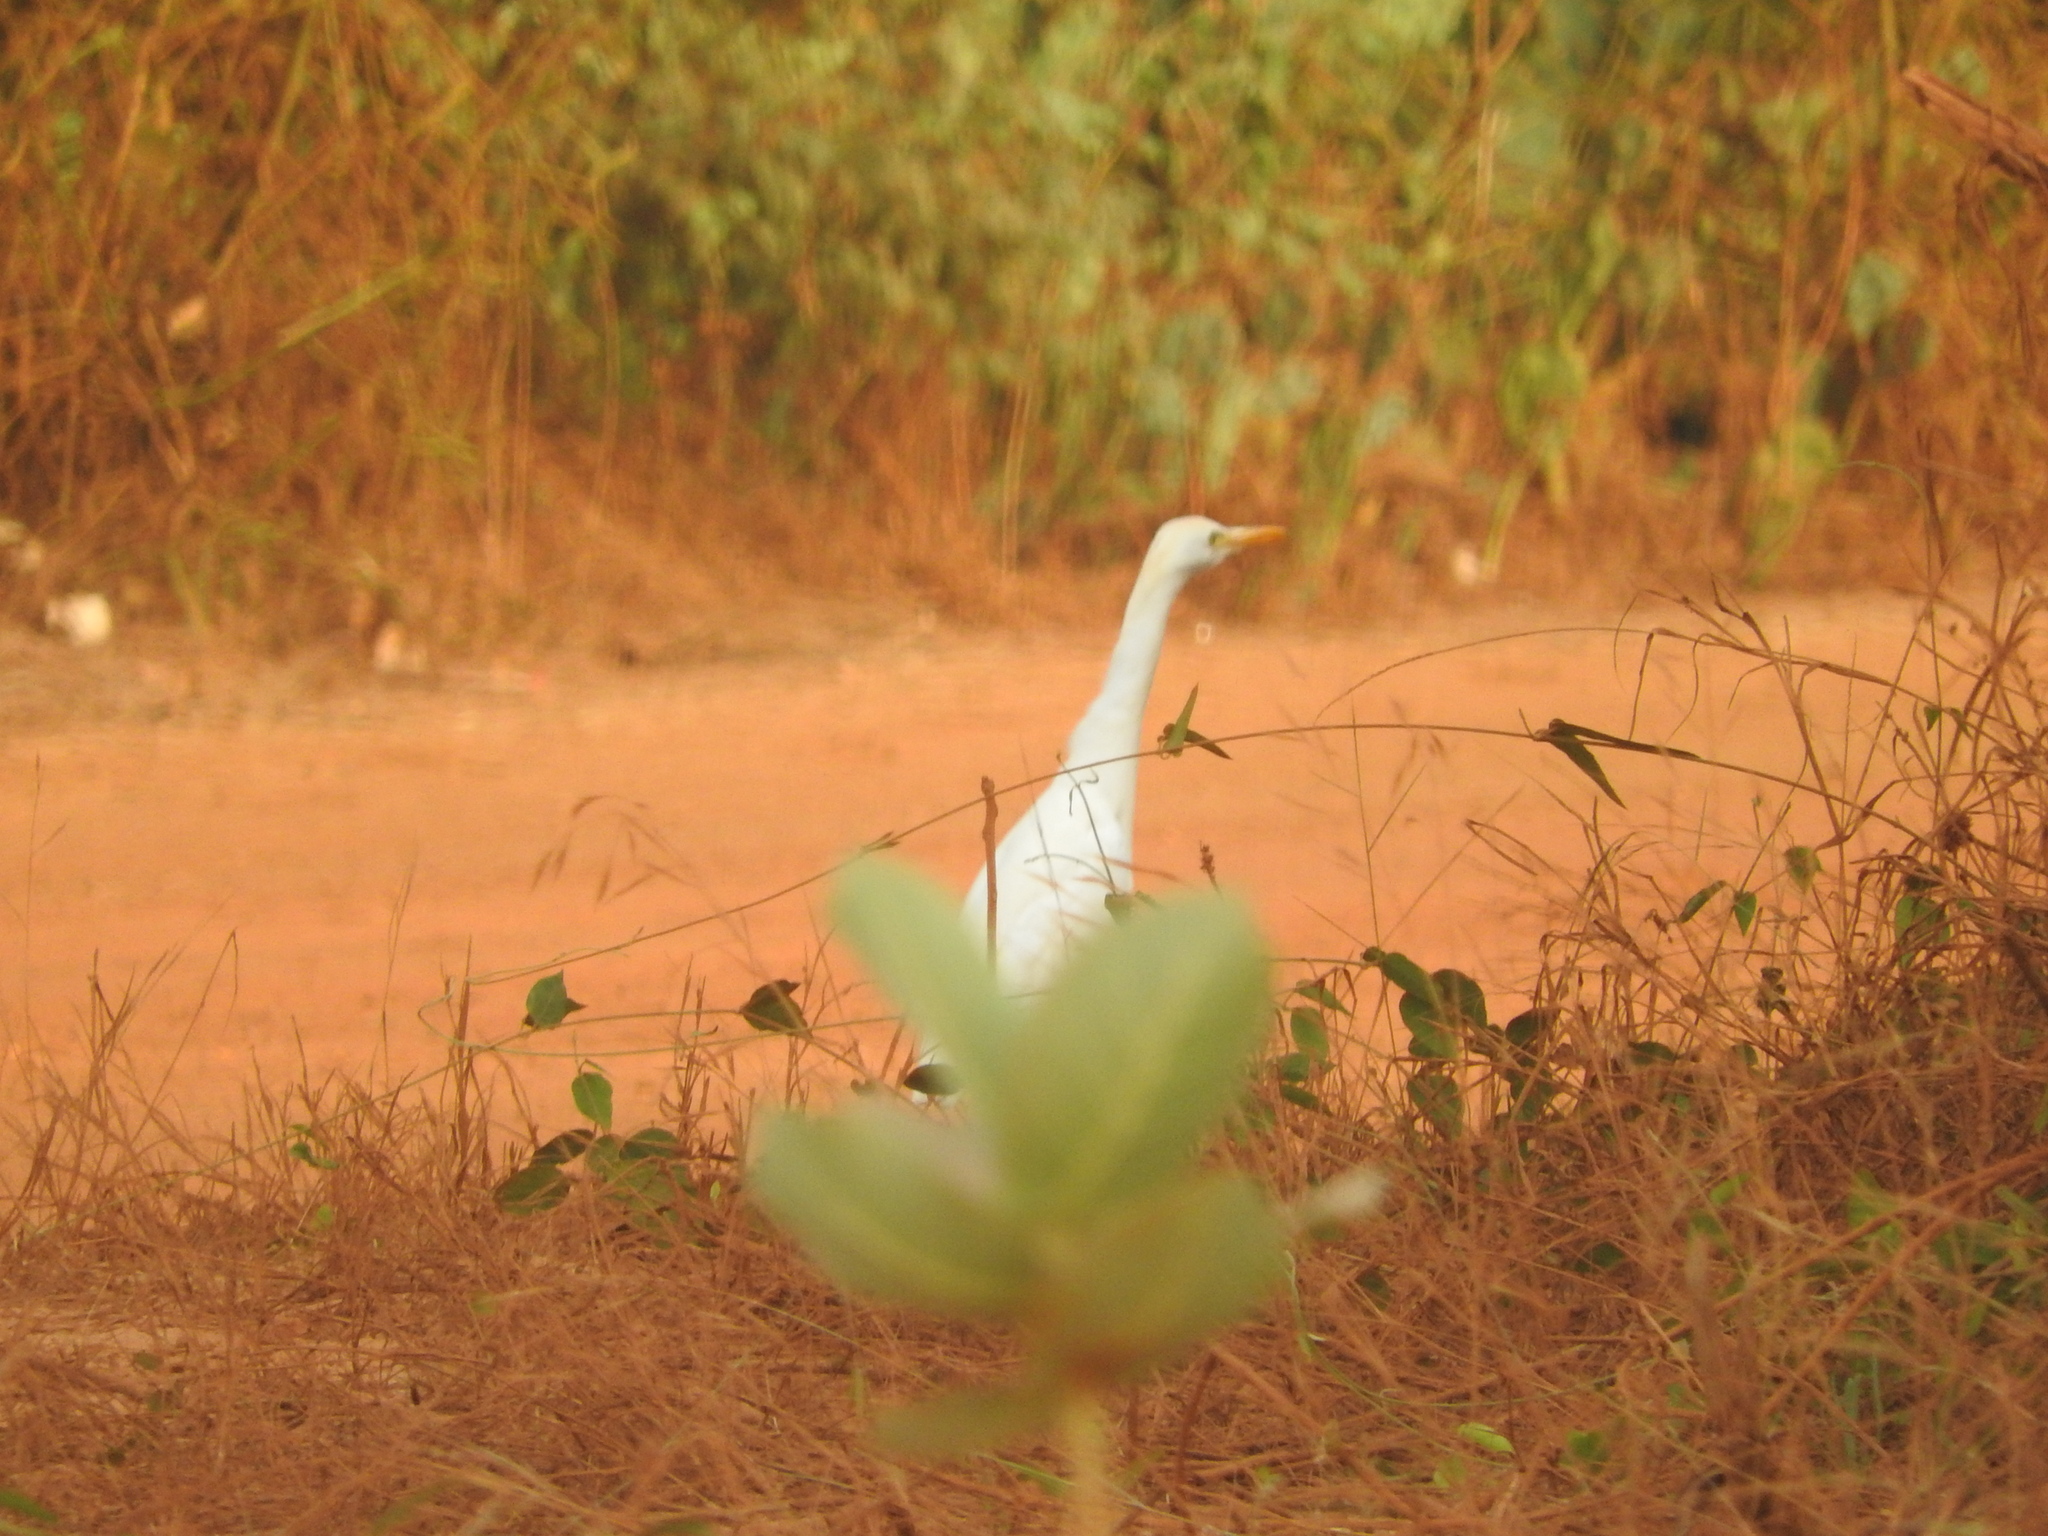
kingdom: Animalia
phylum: Chordata
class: Aves
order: Pelecaniformes
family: Ardeidae
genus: Bubulcus
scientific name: Bubulcus ibis
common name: Cattle egret
